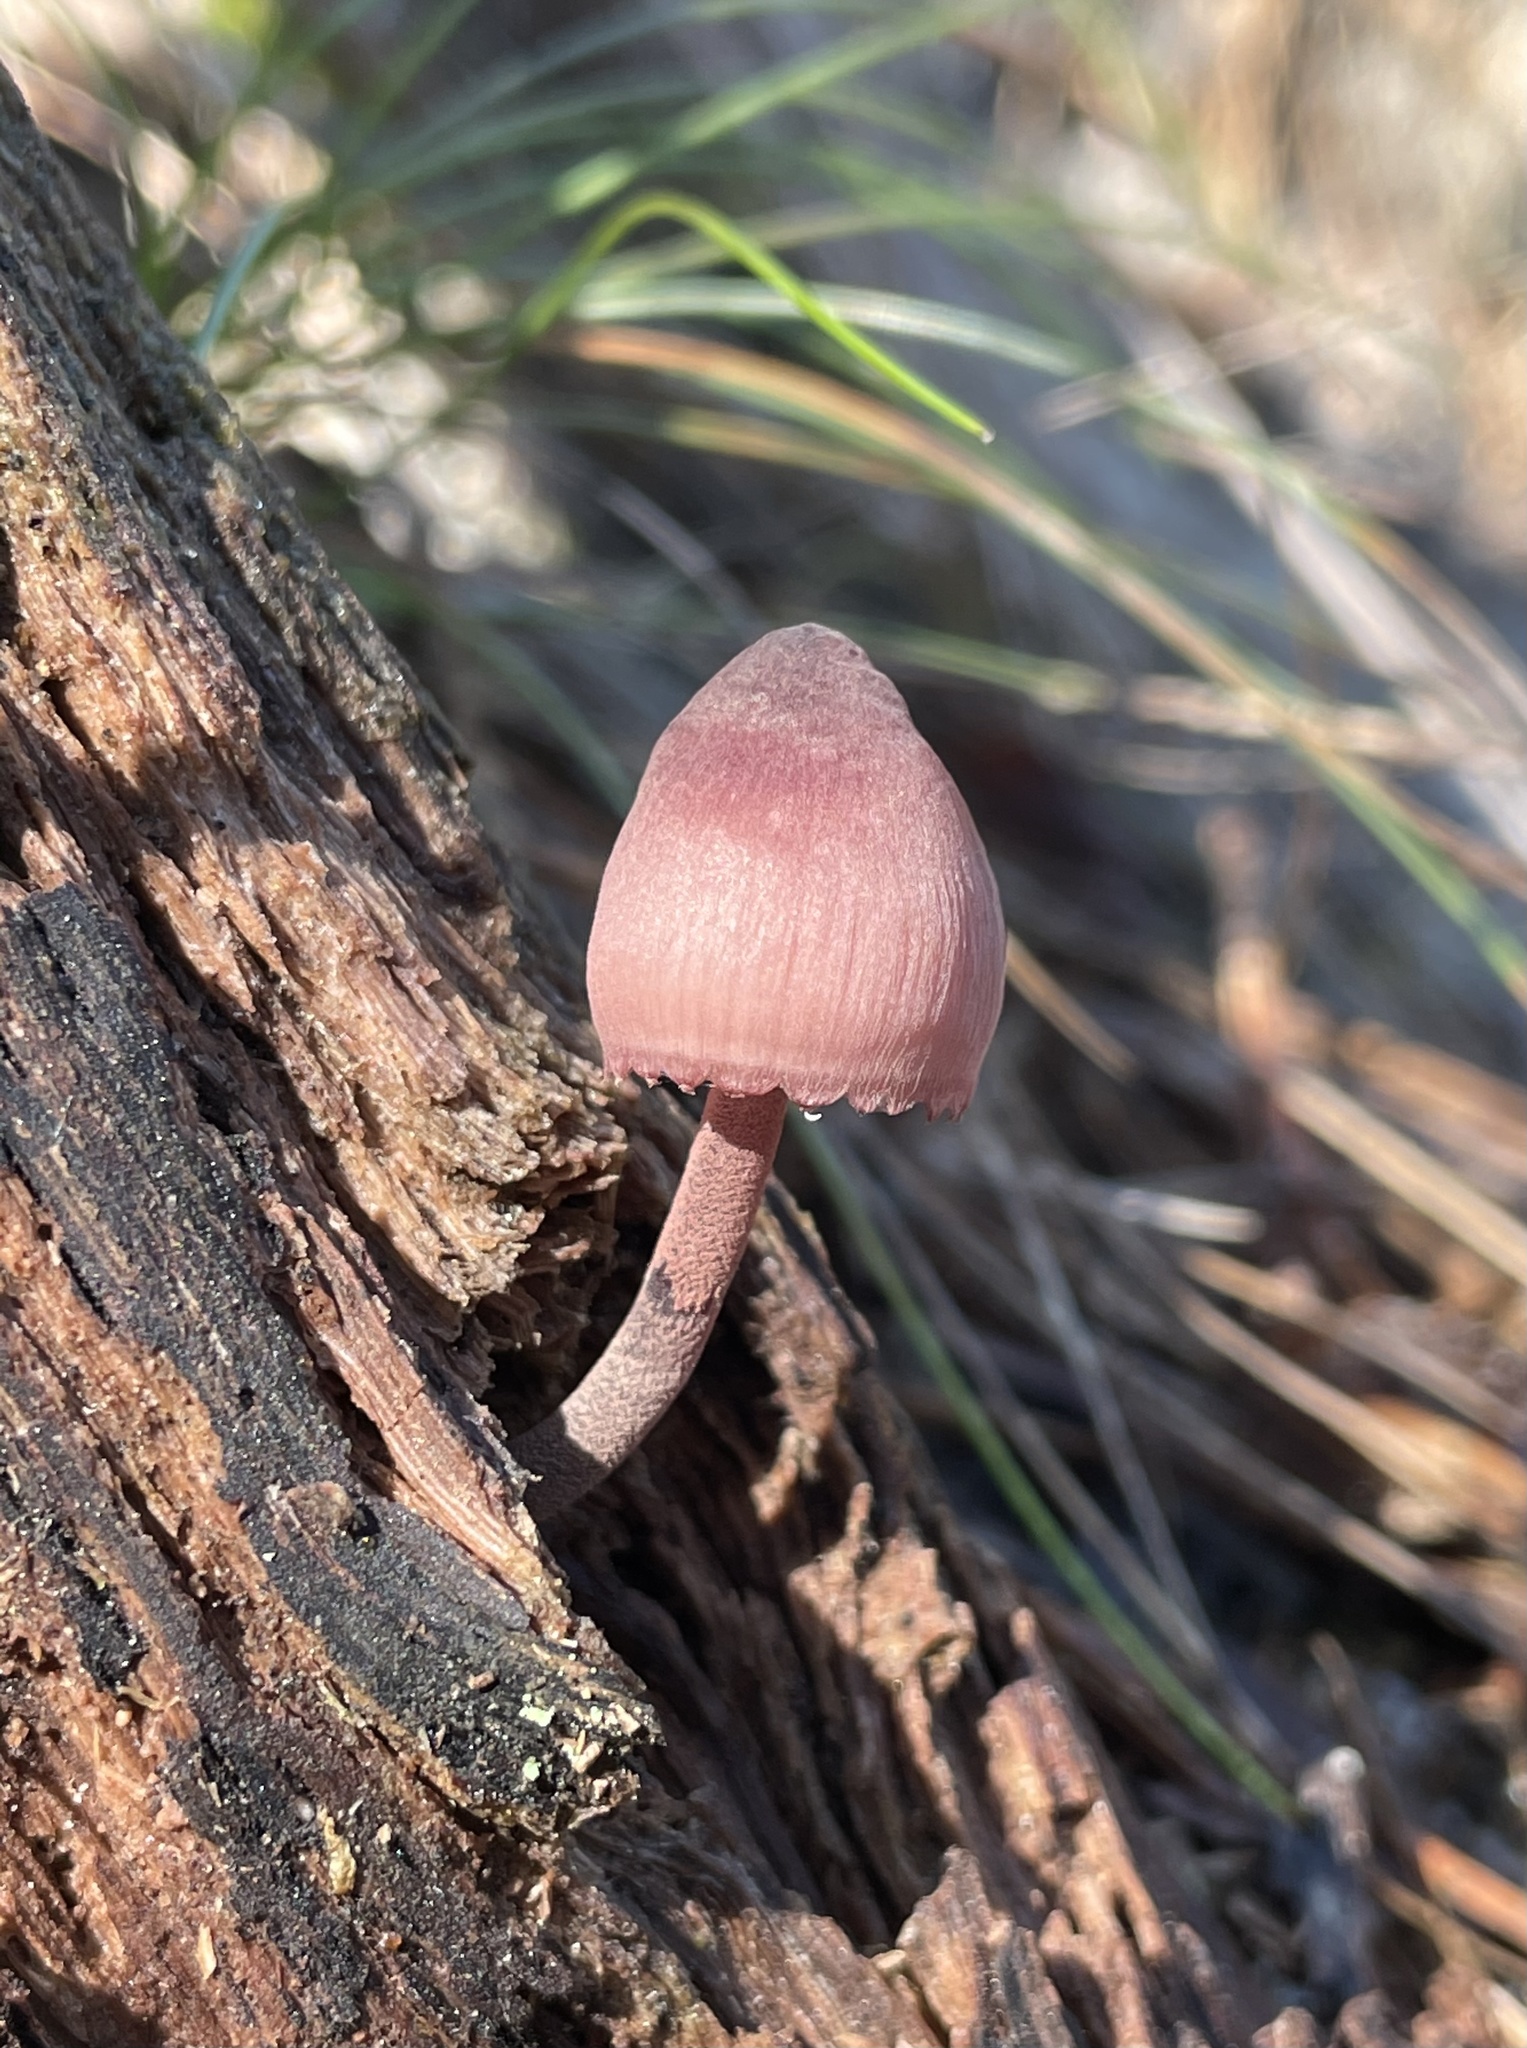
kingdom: Fungi
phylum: Basidiomycota
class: Agaricomycetes
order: Agaricales
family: Mycenaceae
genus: Mycena
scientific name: Mycena haematopus
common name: Burgundydrop bonnet
